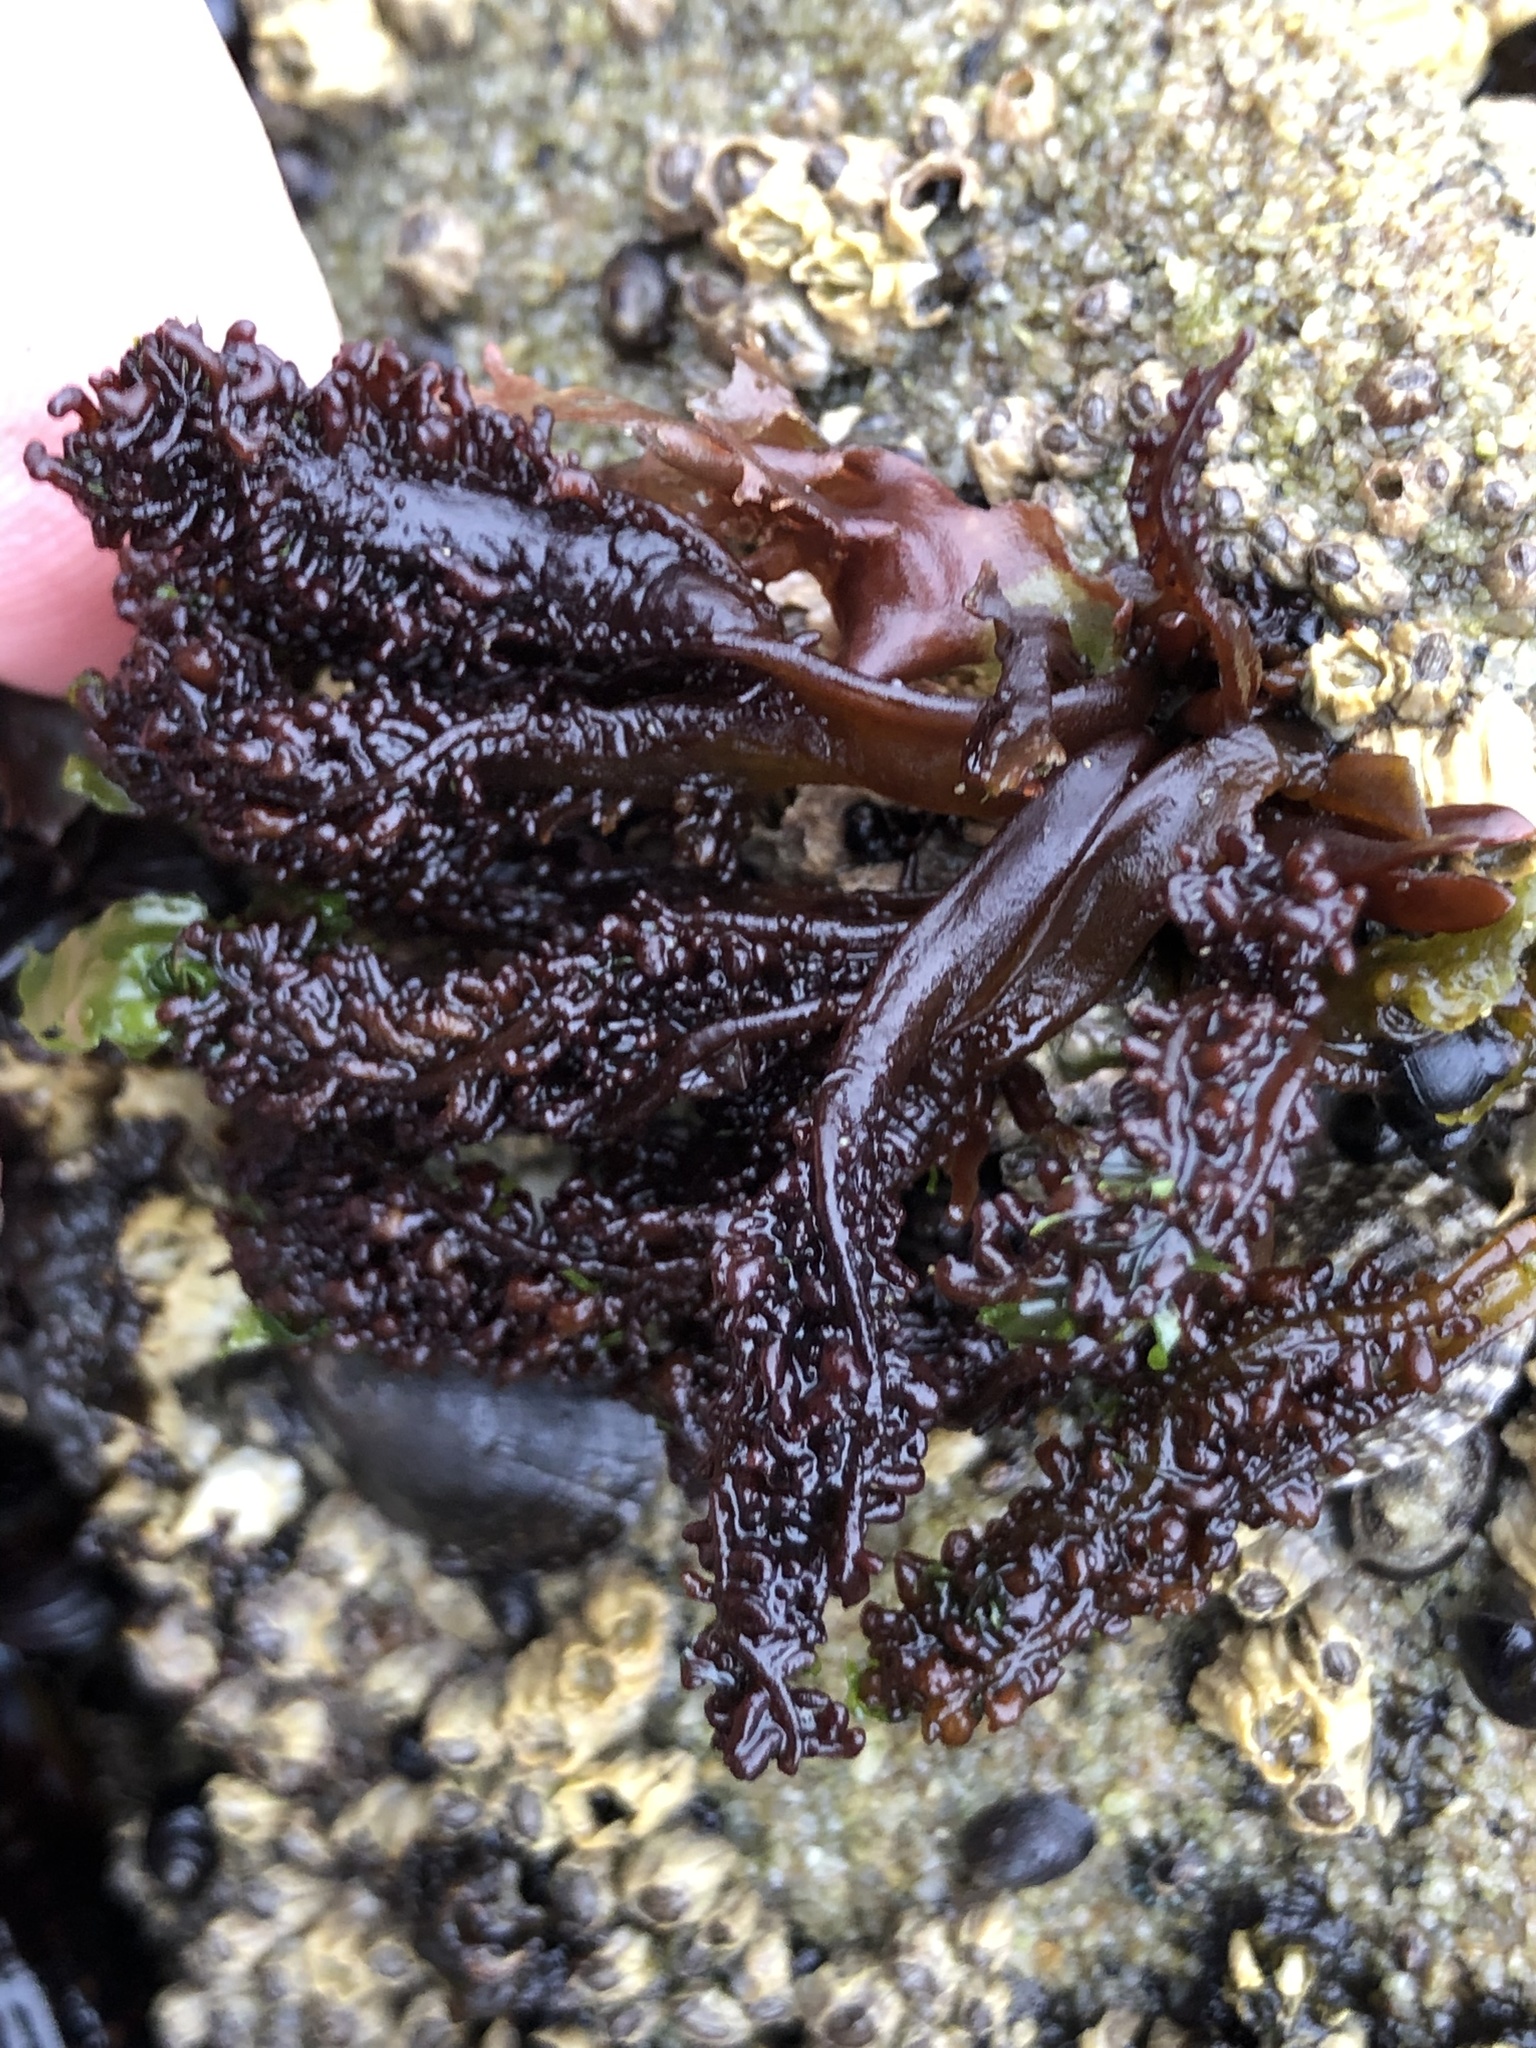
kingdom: Plantae
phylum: Rhodophyta
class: Florideophyceae
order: Gigartinales
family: Phyllophoraceae
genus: Mastocarpus
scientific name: Mastocarpus papillatus
